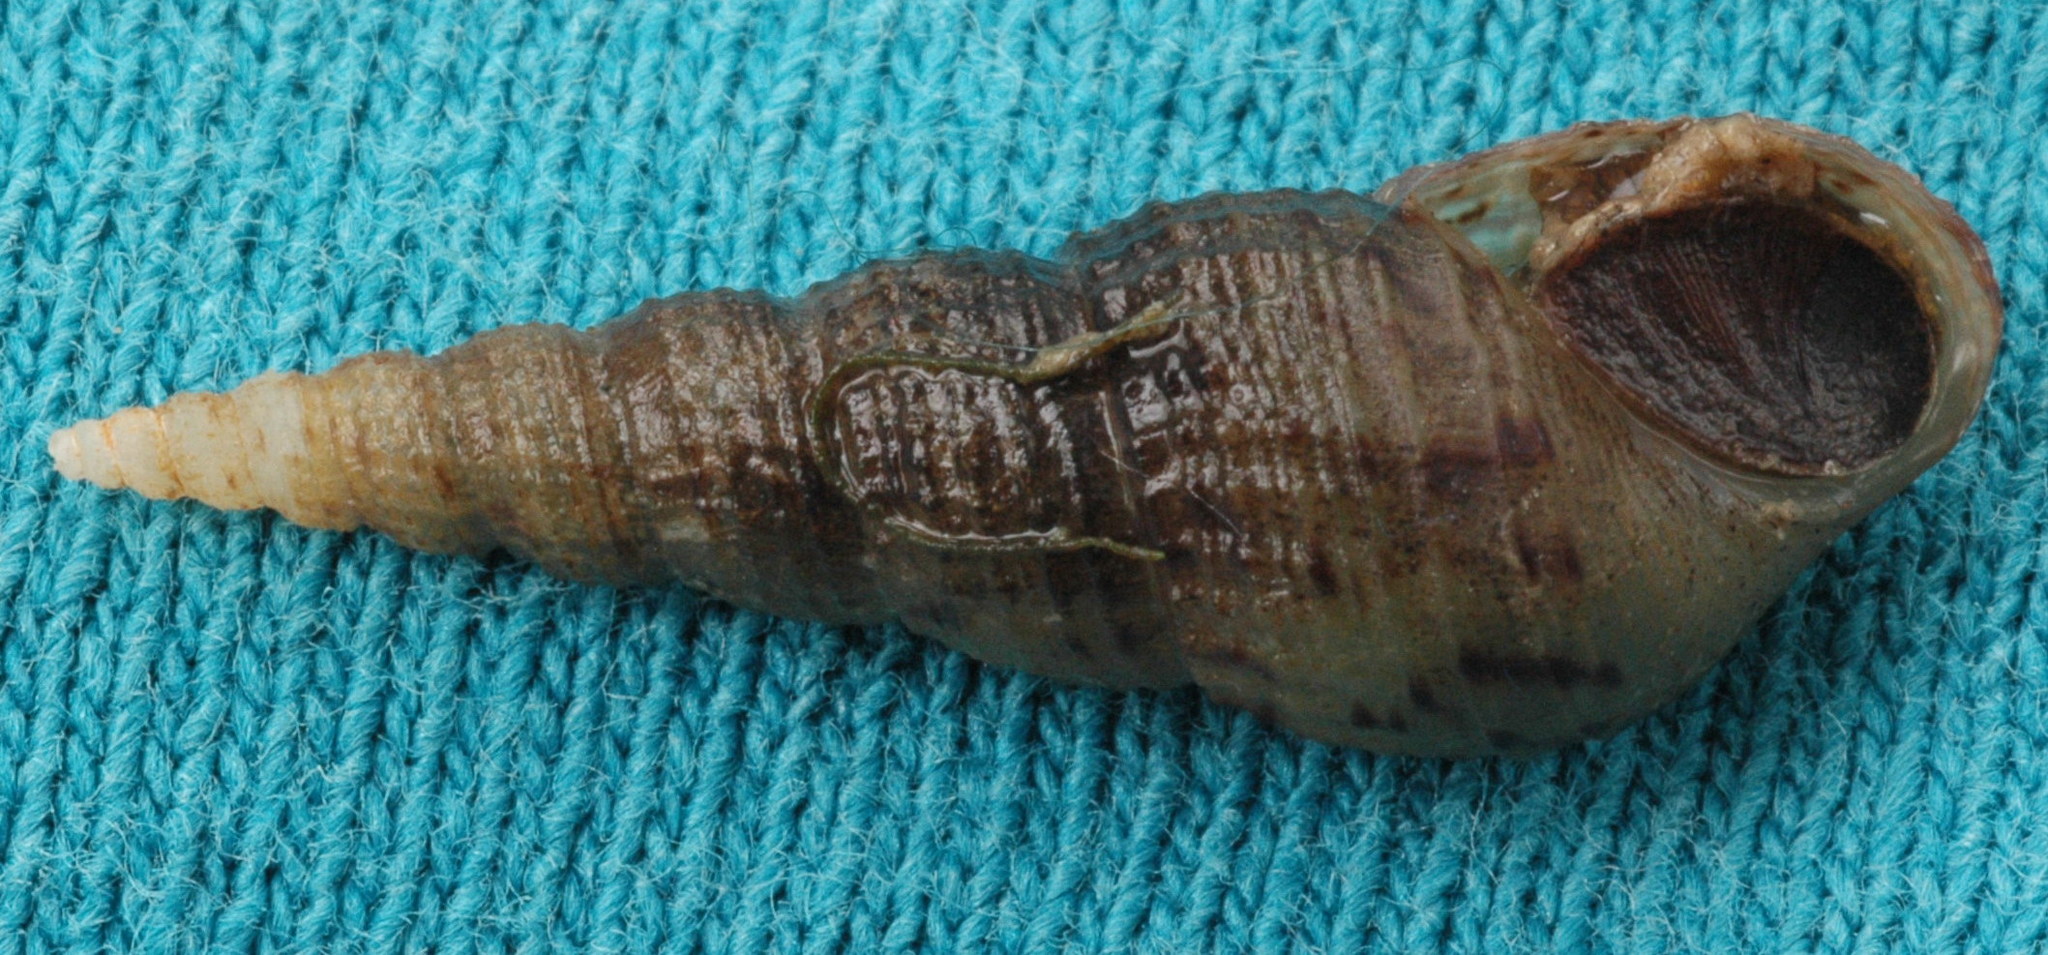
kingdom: Animalia
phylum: Mollusca
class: Gastropoda
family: Thiaridae
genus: Melanoides
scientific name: Melanoides tuberculata
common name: Red-rim melania
